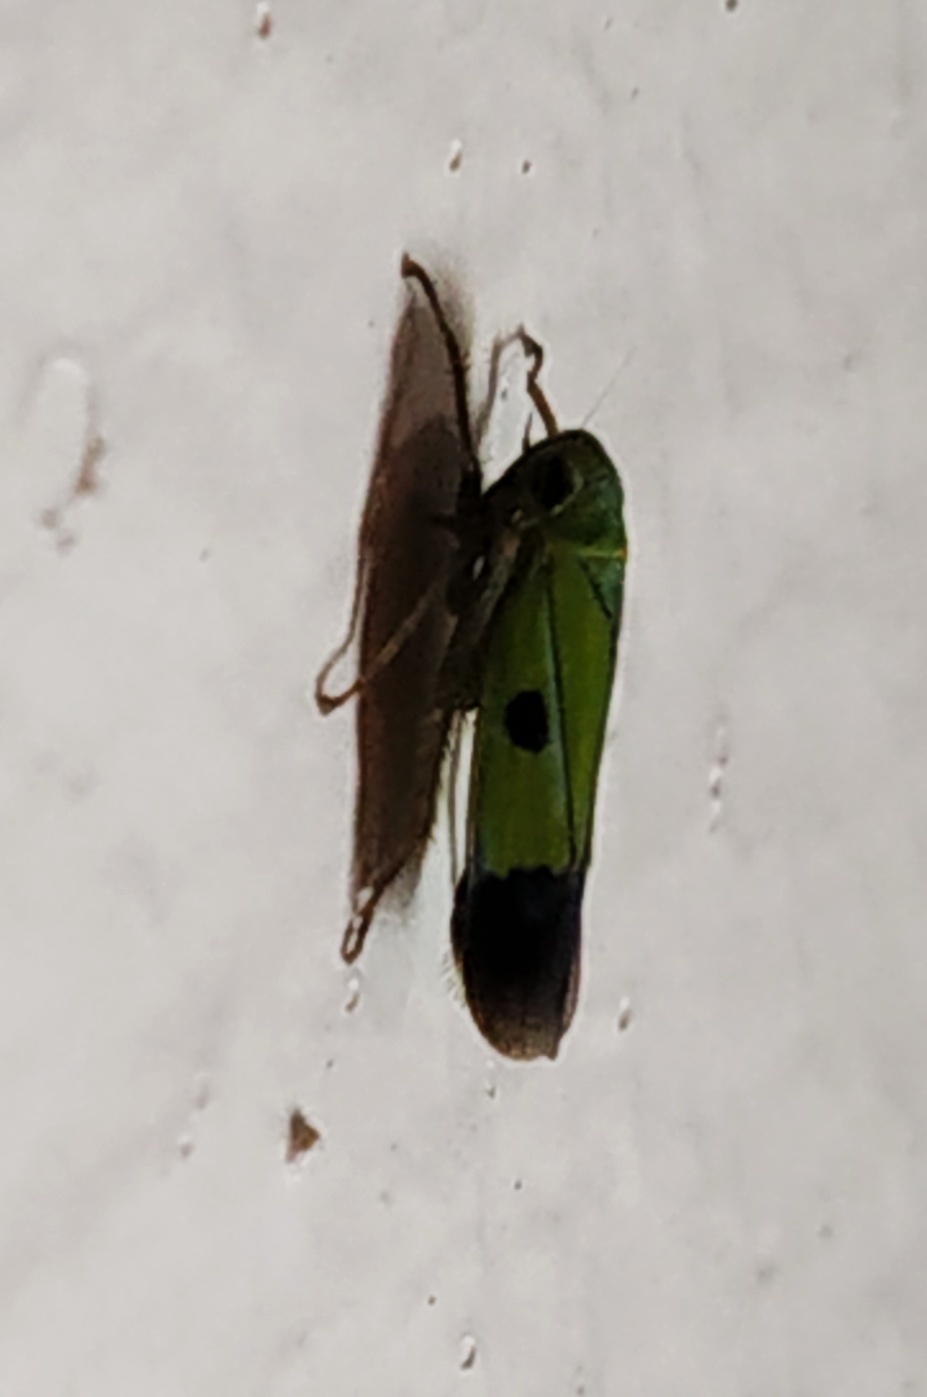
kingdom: Animalia
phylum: Arthropoda
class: Insecta
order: Hemiptera
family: Cicadellidae
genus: Nephotettix
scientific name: Nephotettix nigropictus
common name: Rice leafhopper
